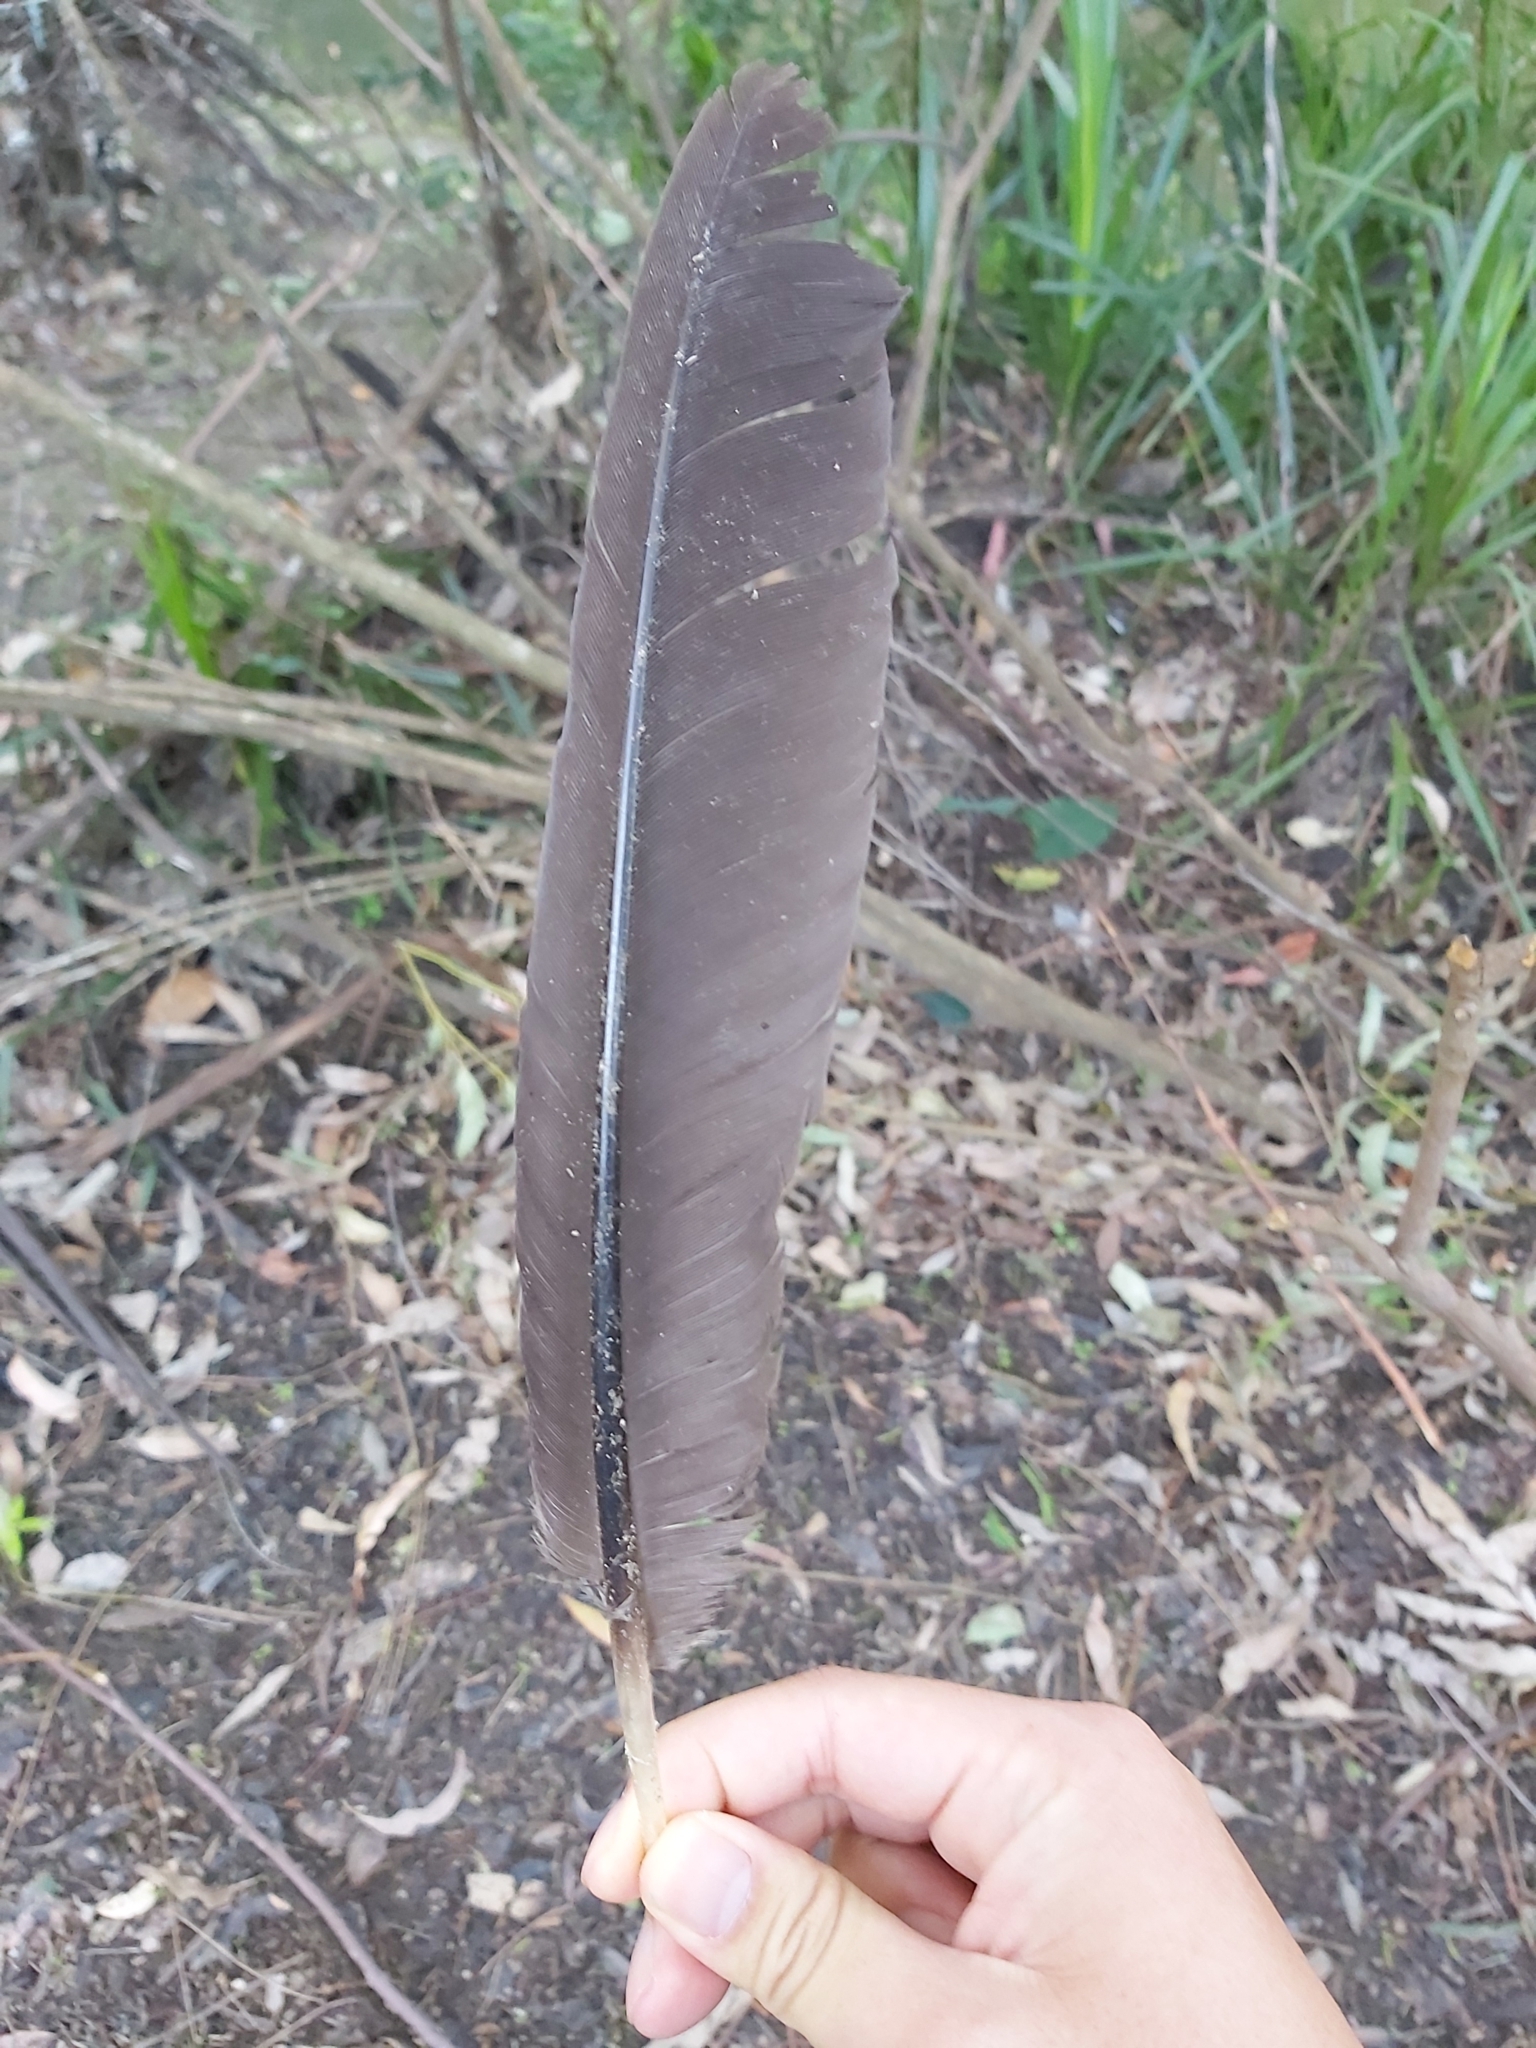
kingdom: Animalia
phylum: Chordata
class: Aves
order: Galliformes
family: Megapodiidae
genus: Alectura
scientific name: Alectura lathami
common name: Australian brushturkey
